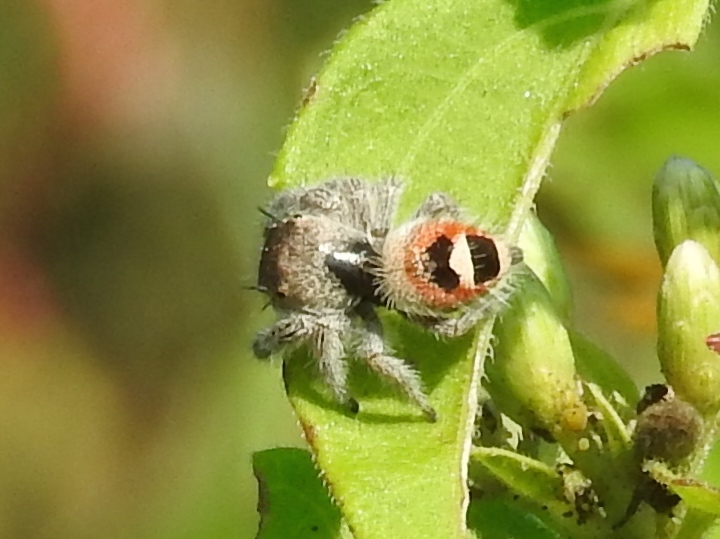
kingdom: Animalia
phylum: Arthropoda
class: Arachnida
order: Araneae
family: Salticidae
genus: Phidippus
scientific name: Phidippus pacosauritus
